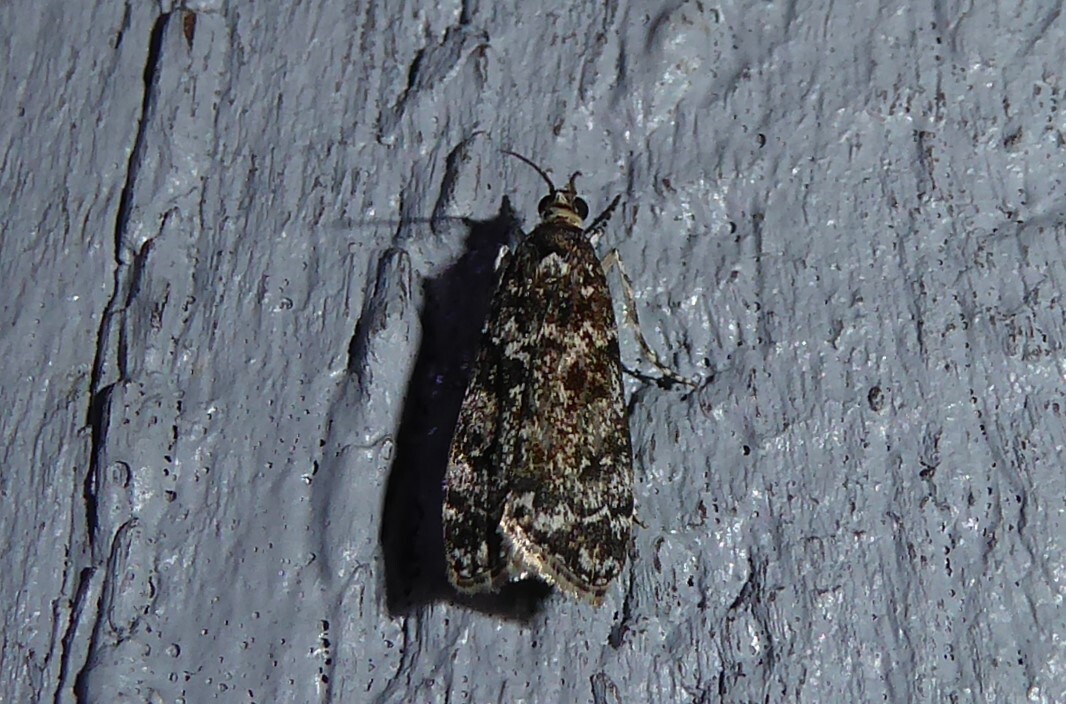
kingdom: Animalia
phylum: Arthropoda
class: Insecta
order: Lepidoptera
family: Crambidae
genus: Eudonia
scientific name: Eudonia philerga
